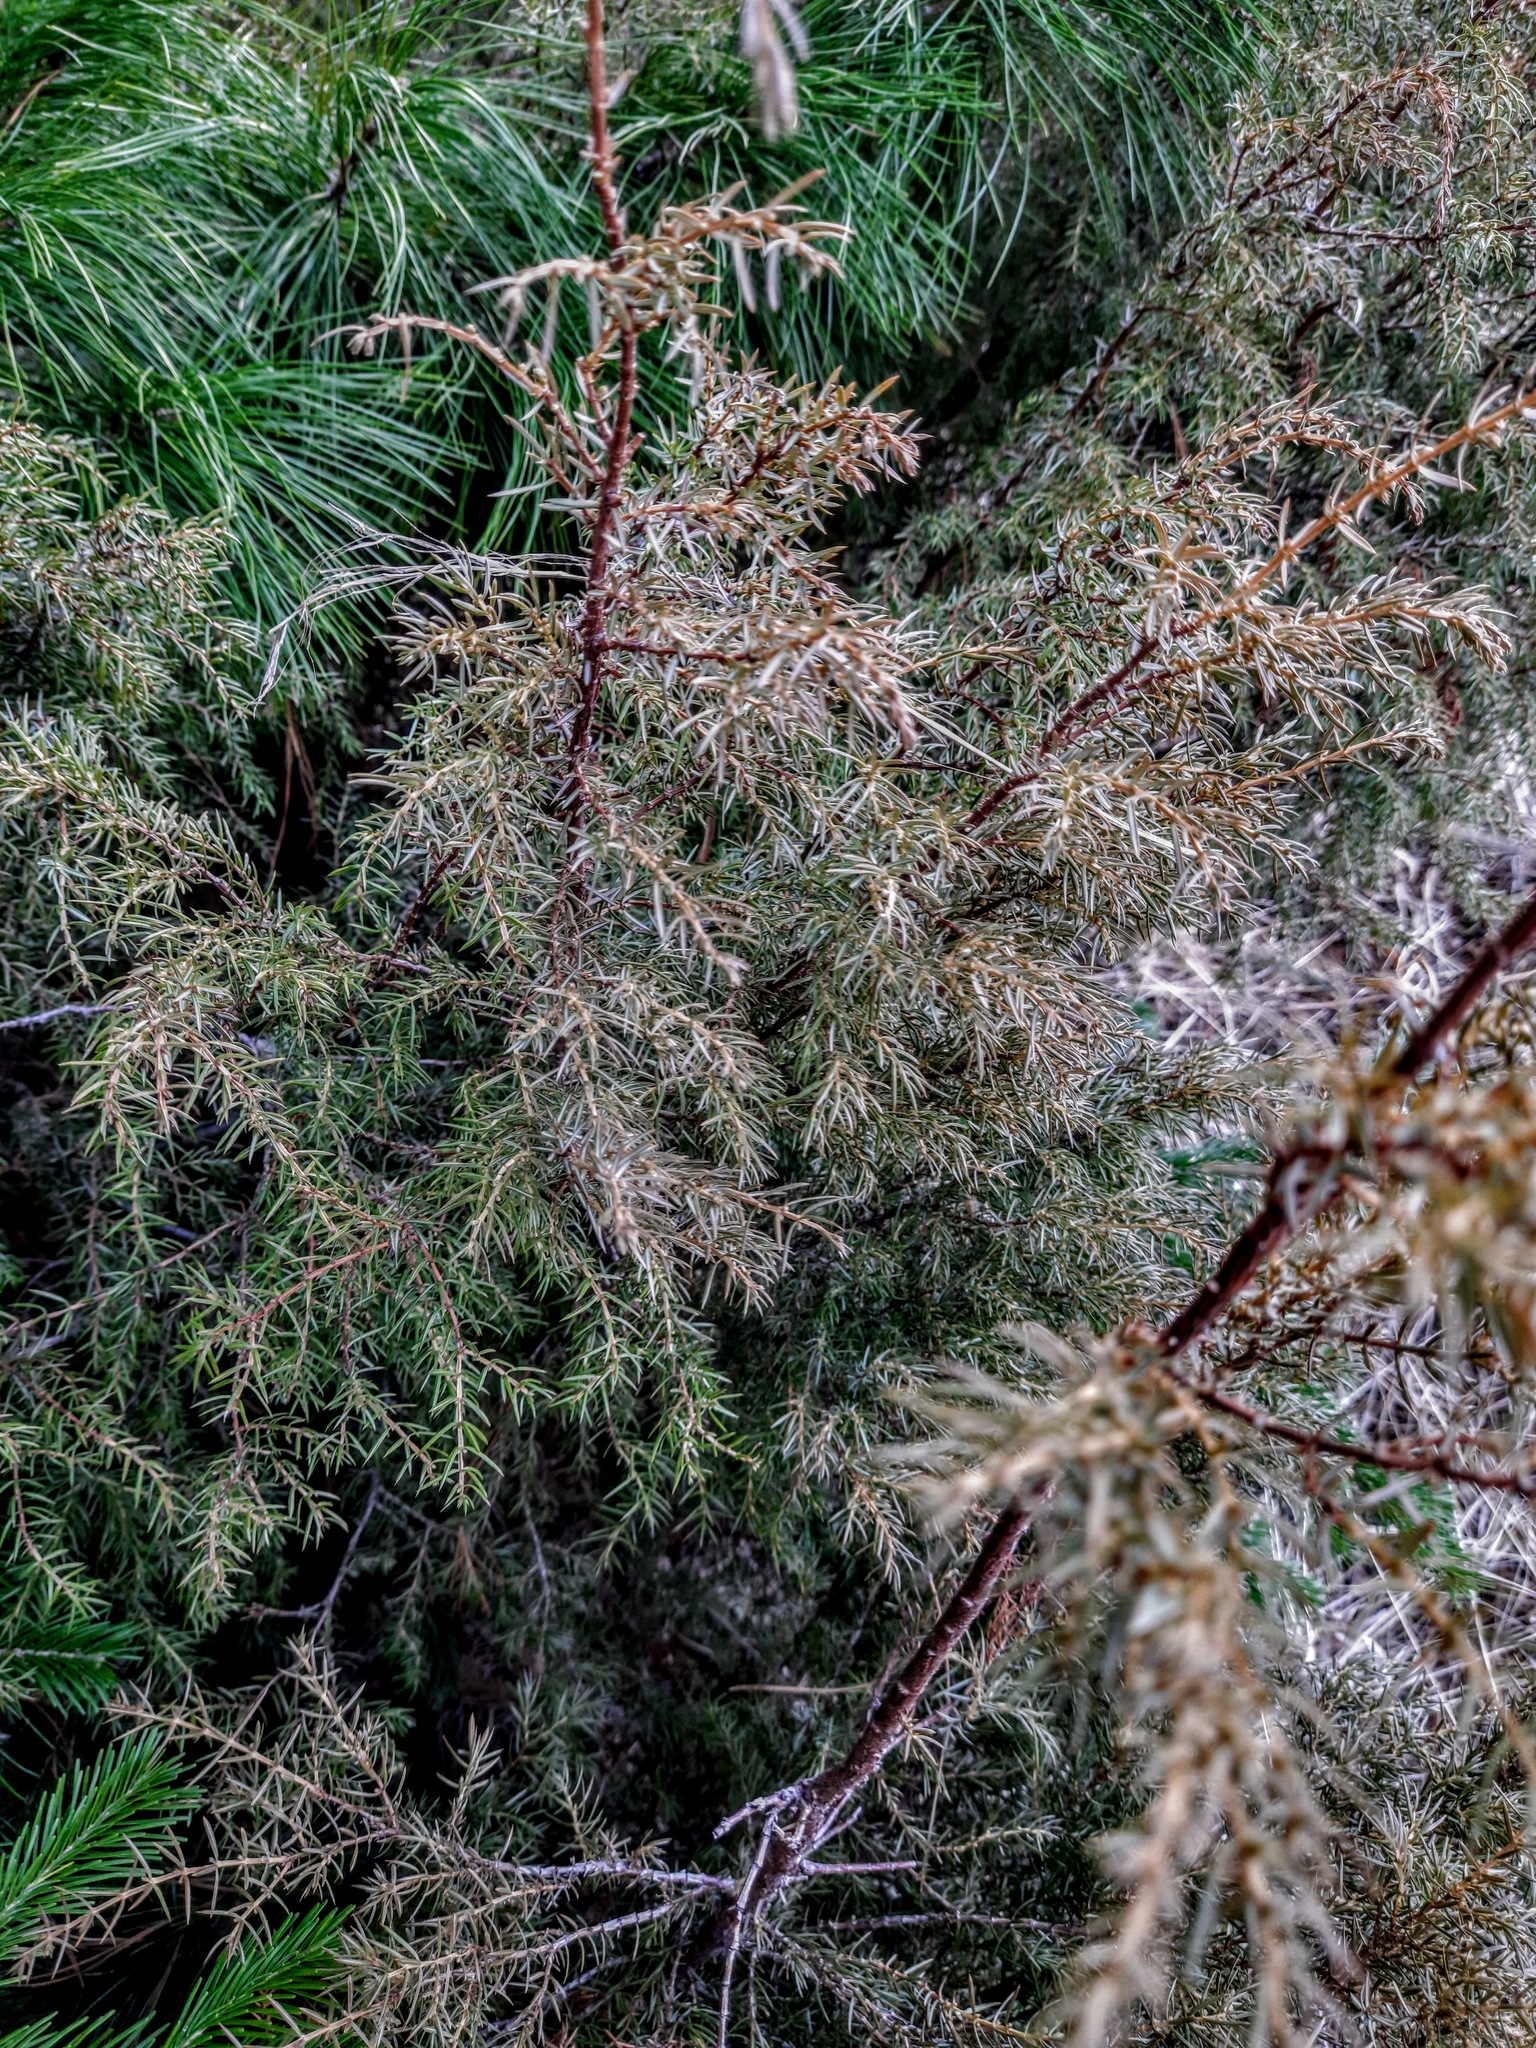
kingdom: Plantae
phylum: Tracheophyta
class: Pinopsida
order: Pinales
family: Cupressaceae
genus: Juniperus
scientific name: Juniperus communis
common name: Common juniper
